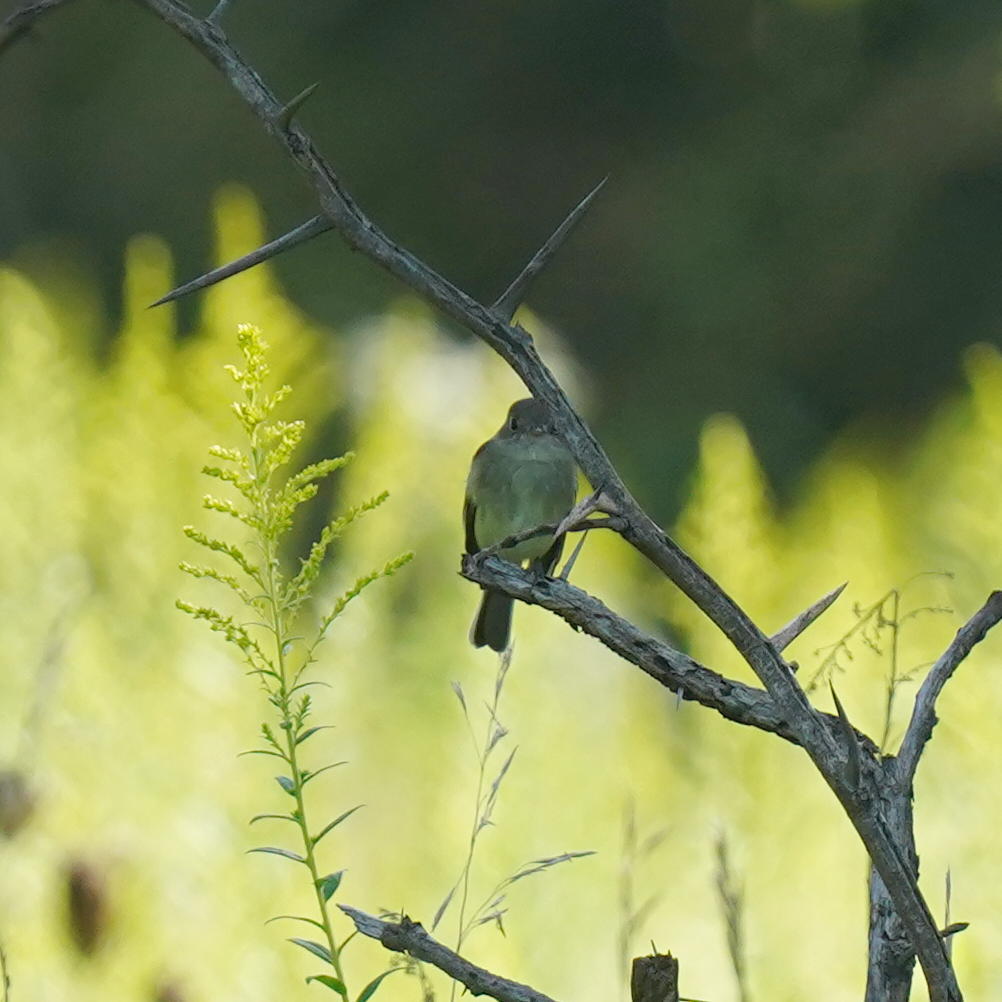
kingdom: Animalia
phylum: Chordata
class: Aves
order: Passeriformes
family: Tyrannidae
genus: Empidonax
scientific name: Empidonax minimus
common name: Least flycatcher
